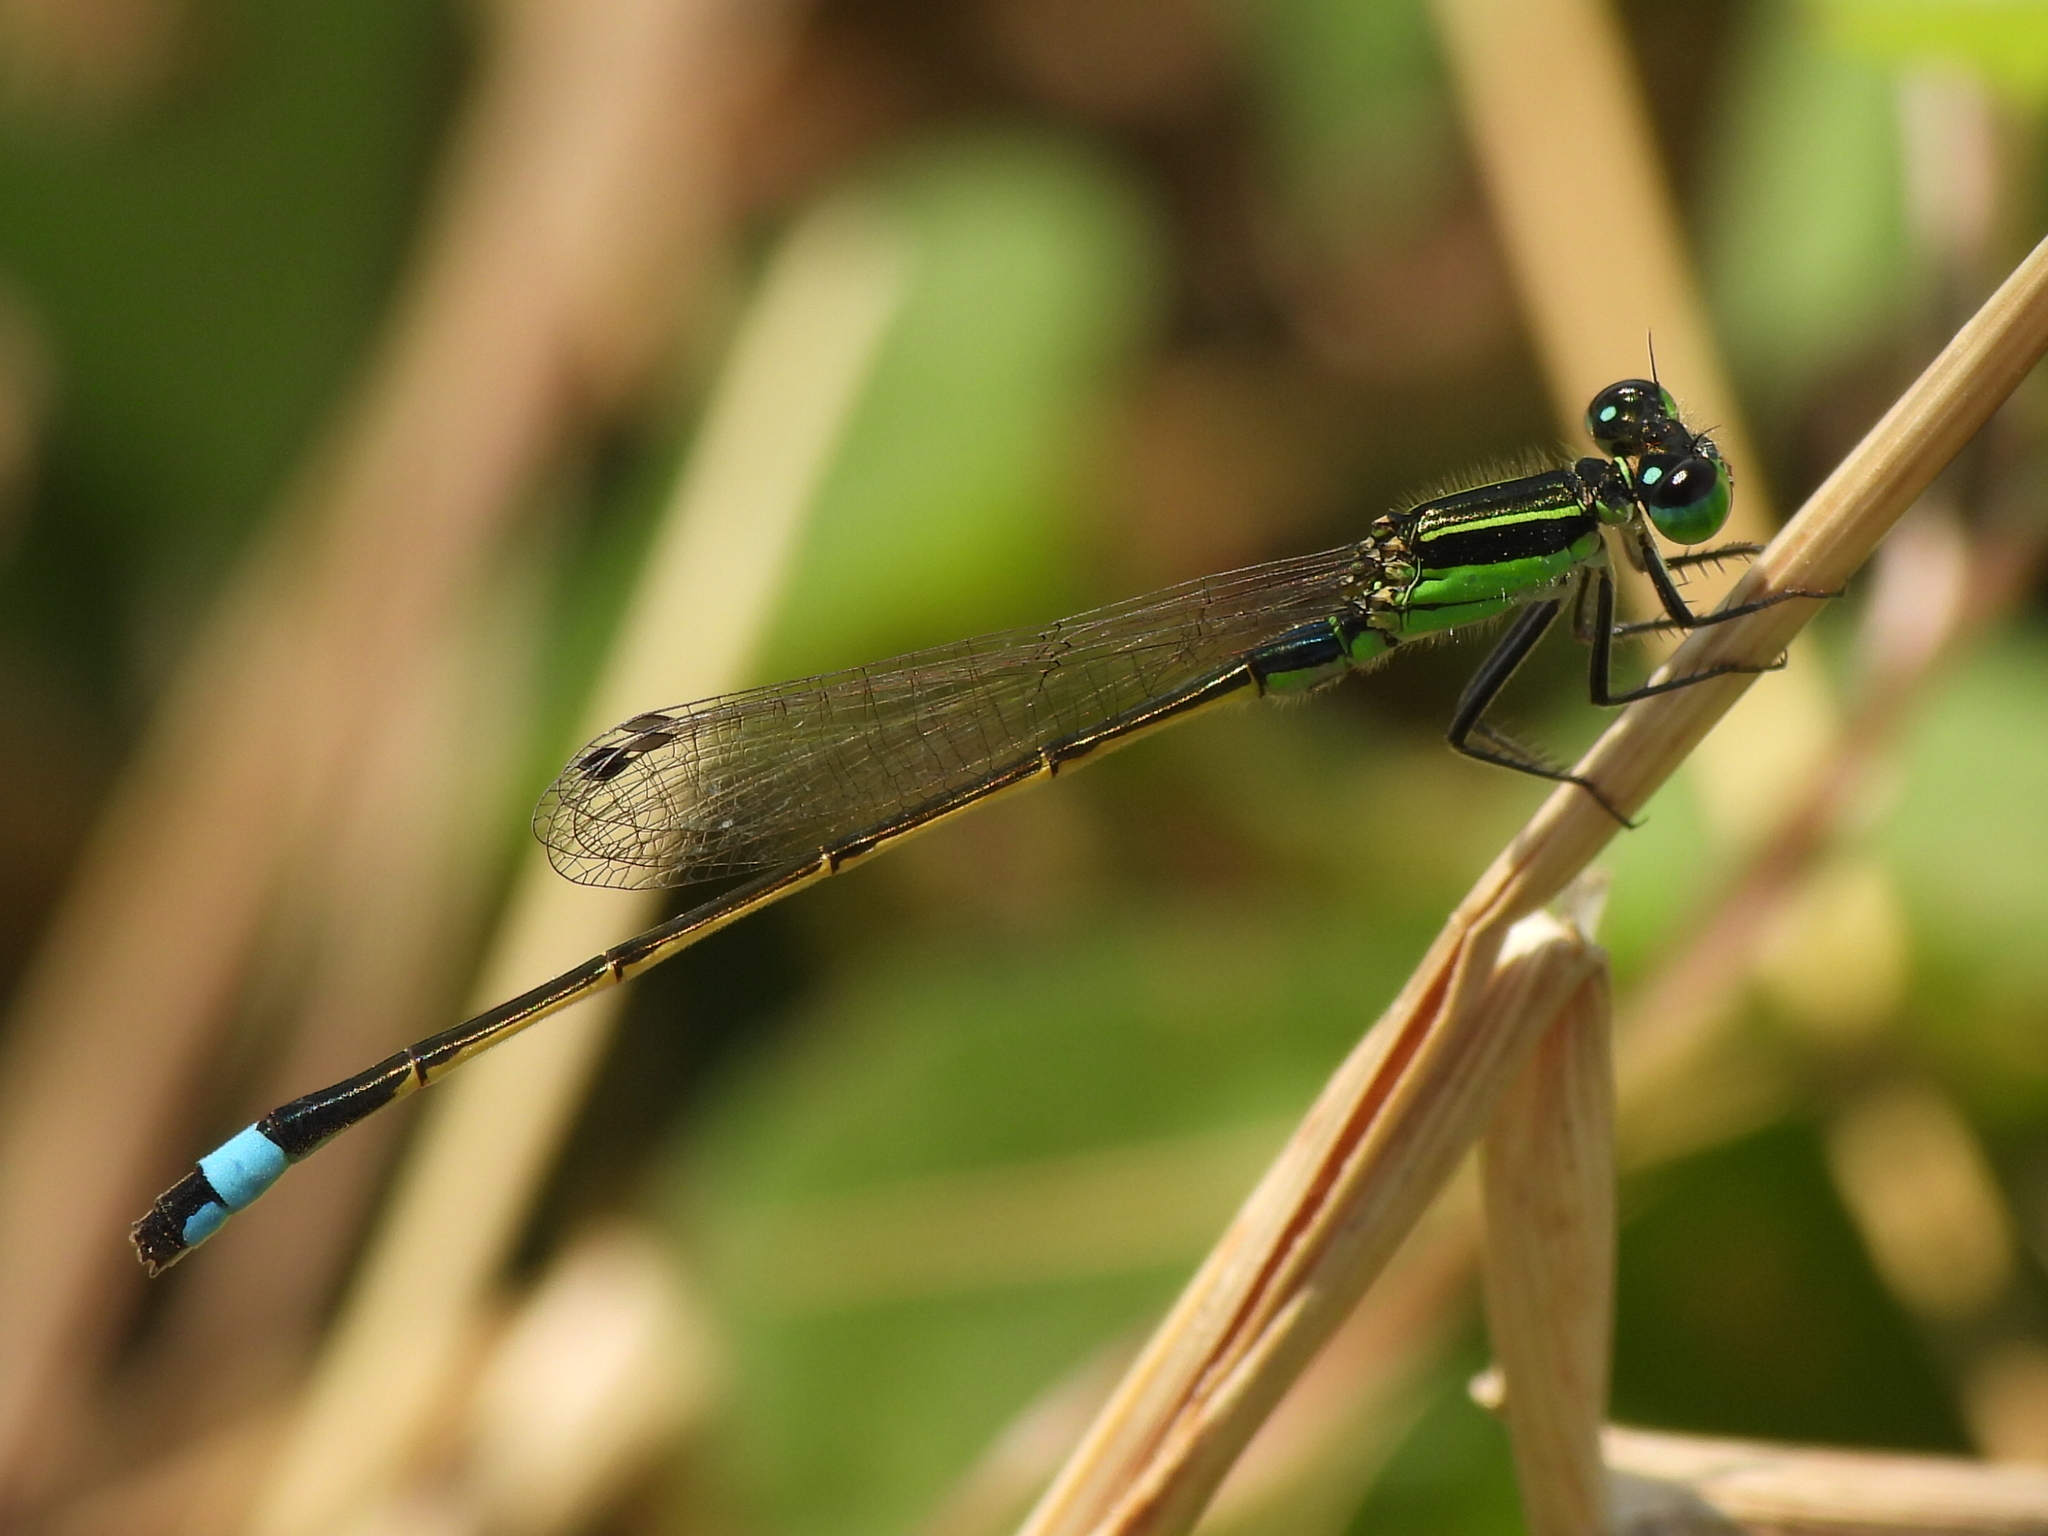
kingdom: Animalia
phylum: Arthropoda
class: Insecta
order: Odonata
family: Coenagrionidae
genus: Ischnura
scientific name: Ischnura ramburii
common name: Rambur's forktail
